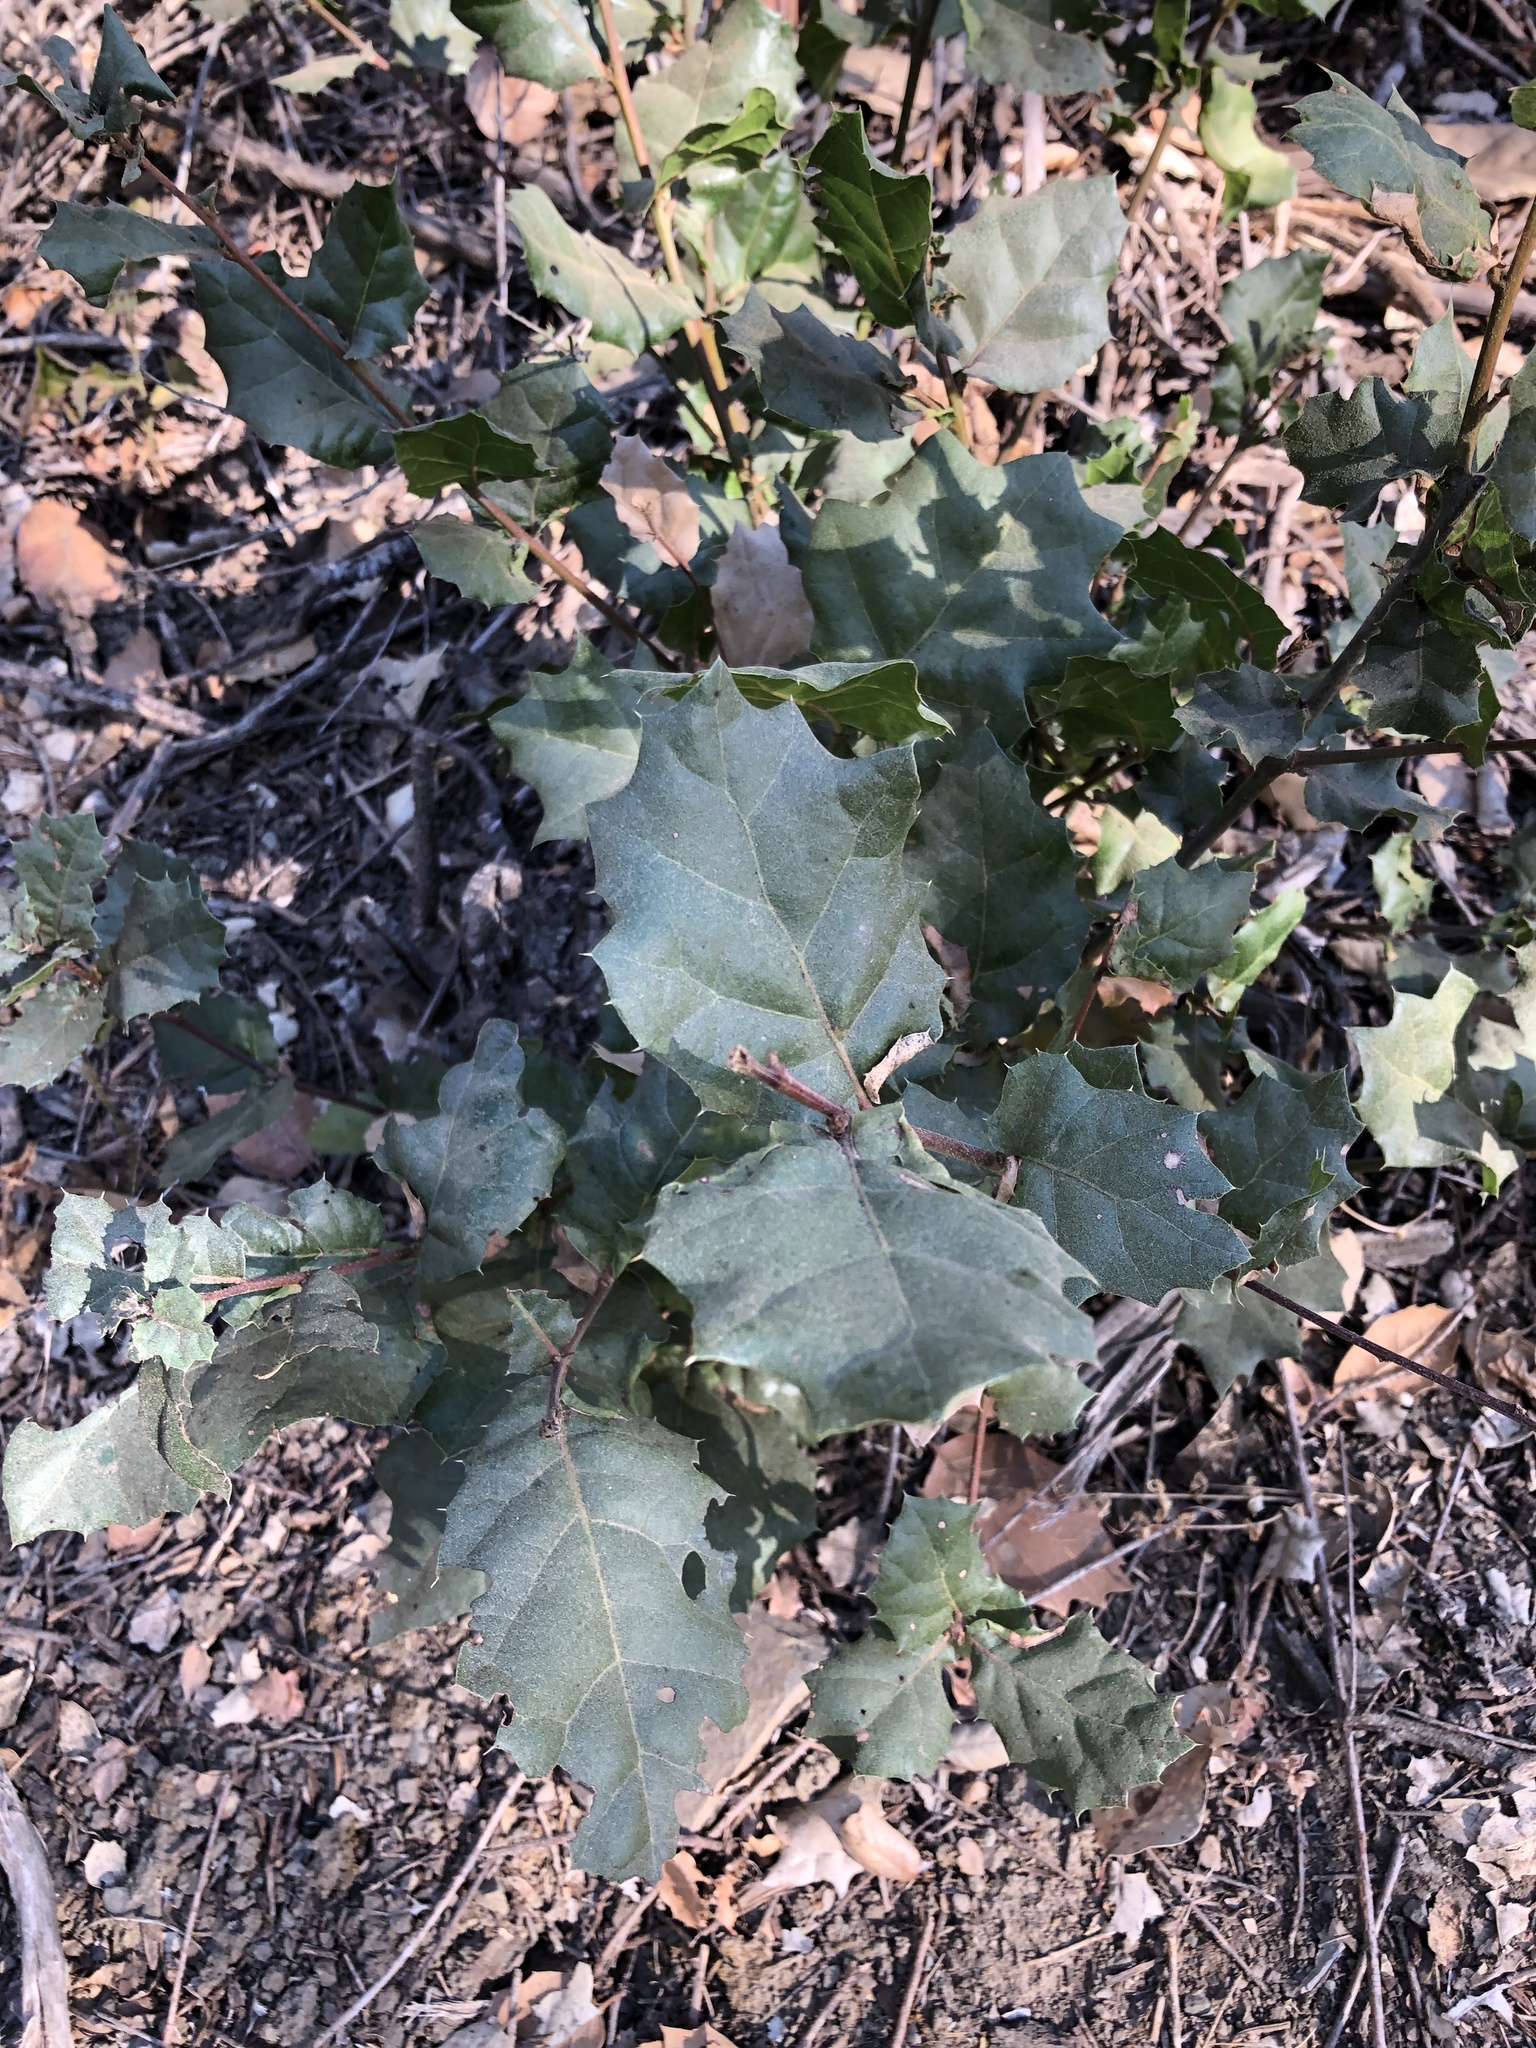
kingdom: Plantae
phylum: Tracheophyta
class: Magnoliopsida
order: Fagales
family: Fagaceae
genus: Quercus
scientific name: Quercus agrifolia
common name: California live oak
